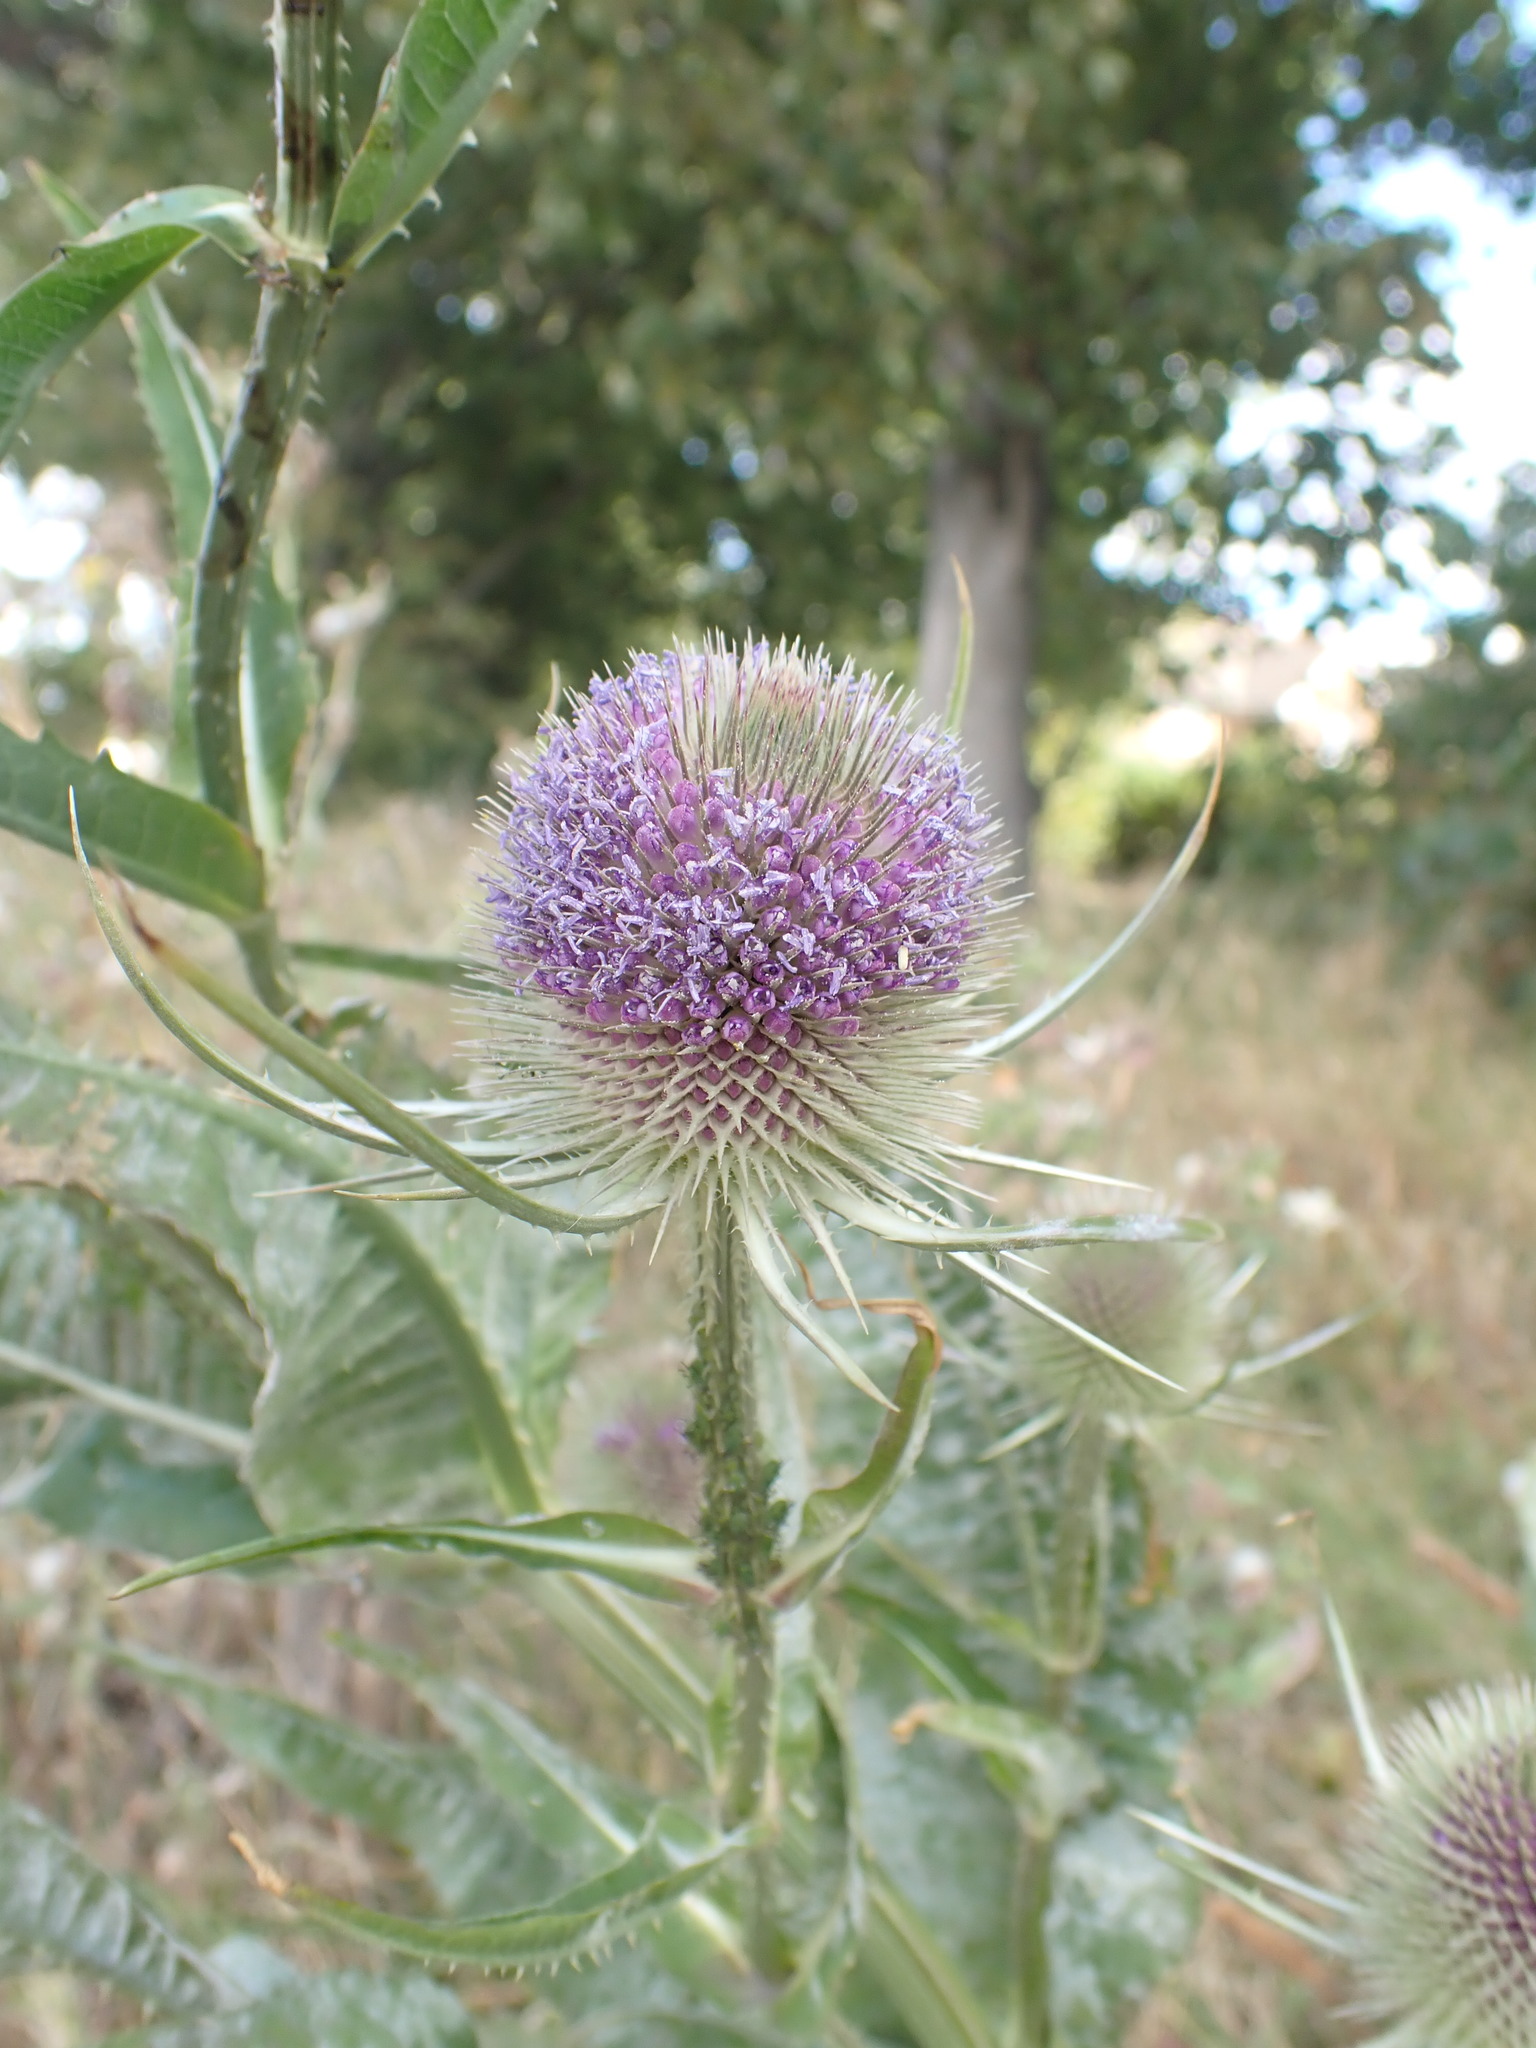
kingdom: Plantae
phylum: Tracheophyta
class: Magnoliopsida
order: Dipsacales
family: Caprifoliaceae
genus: Dipsacus
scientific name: Dipsacus fullonum
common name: Teasel
